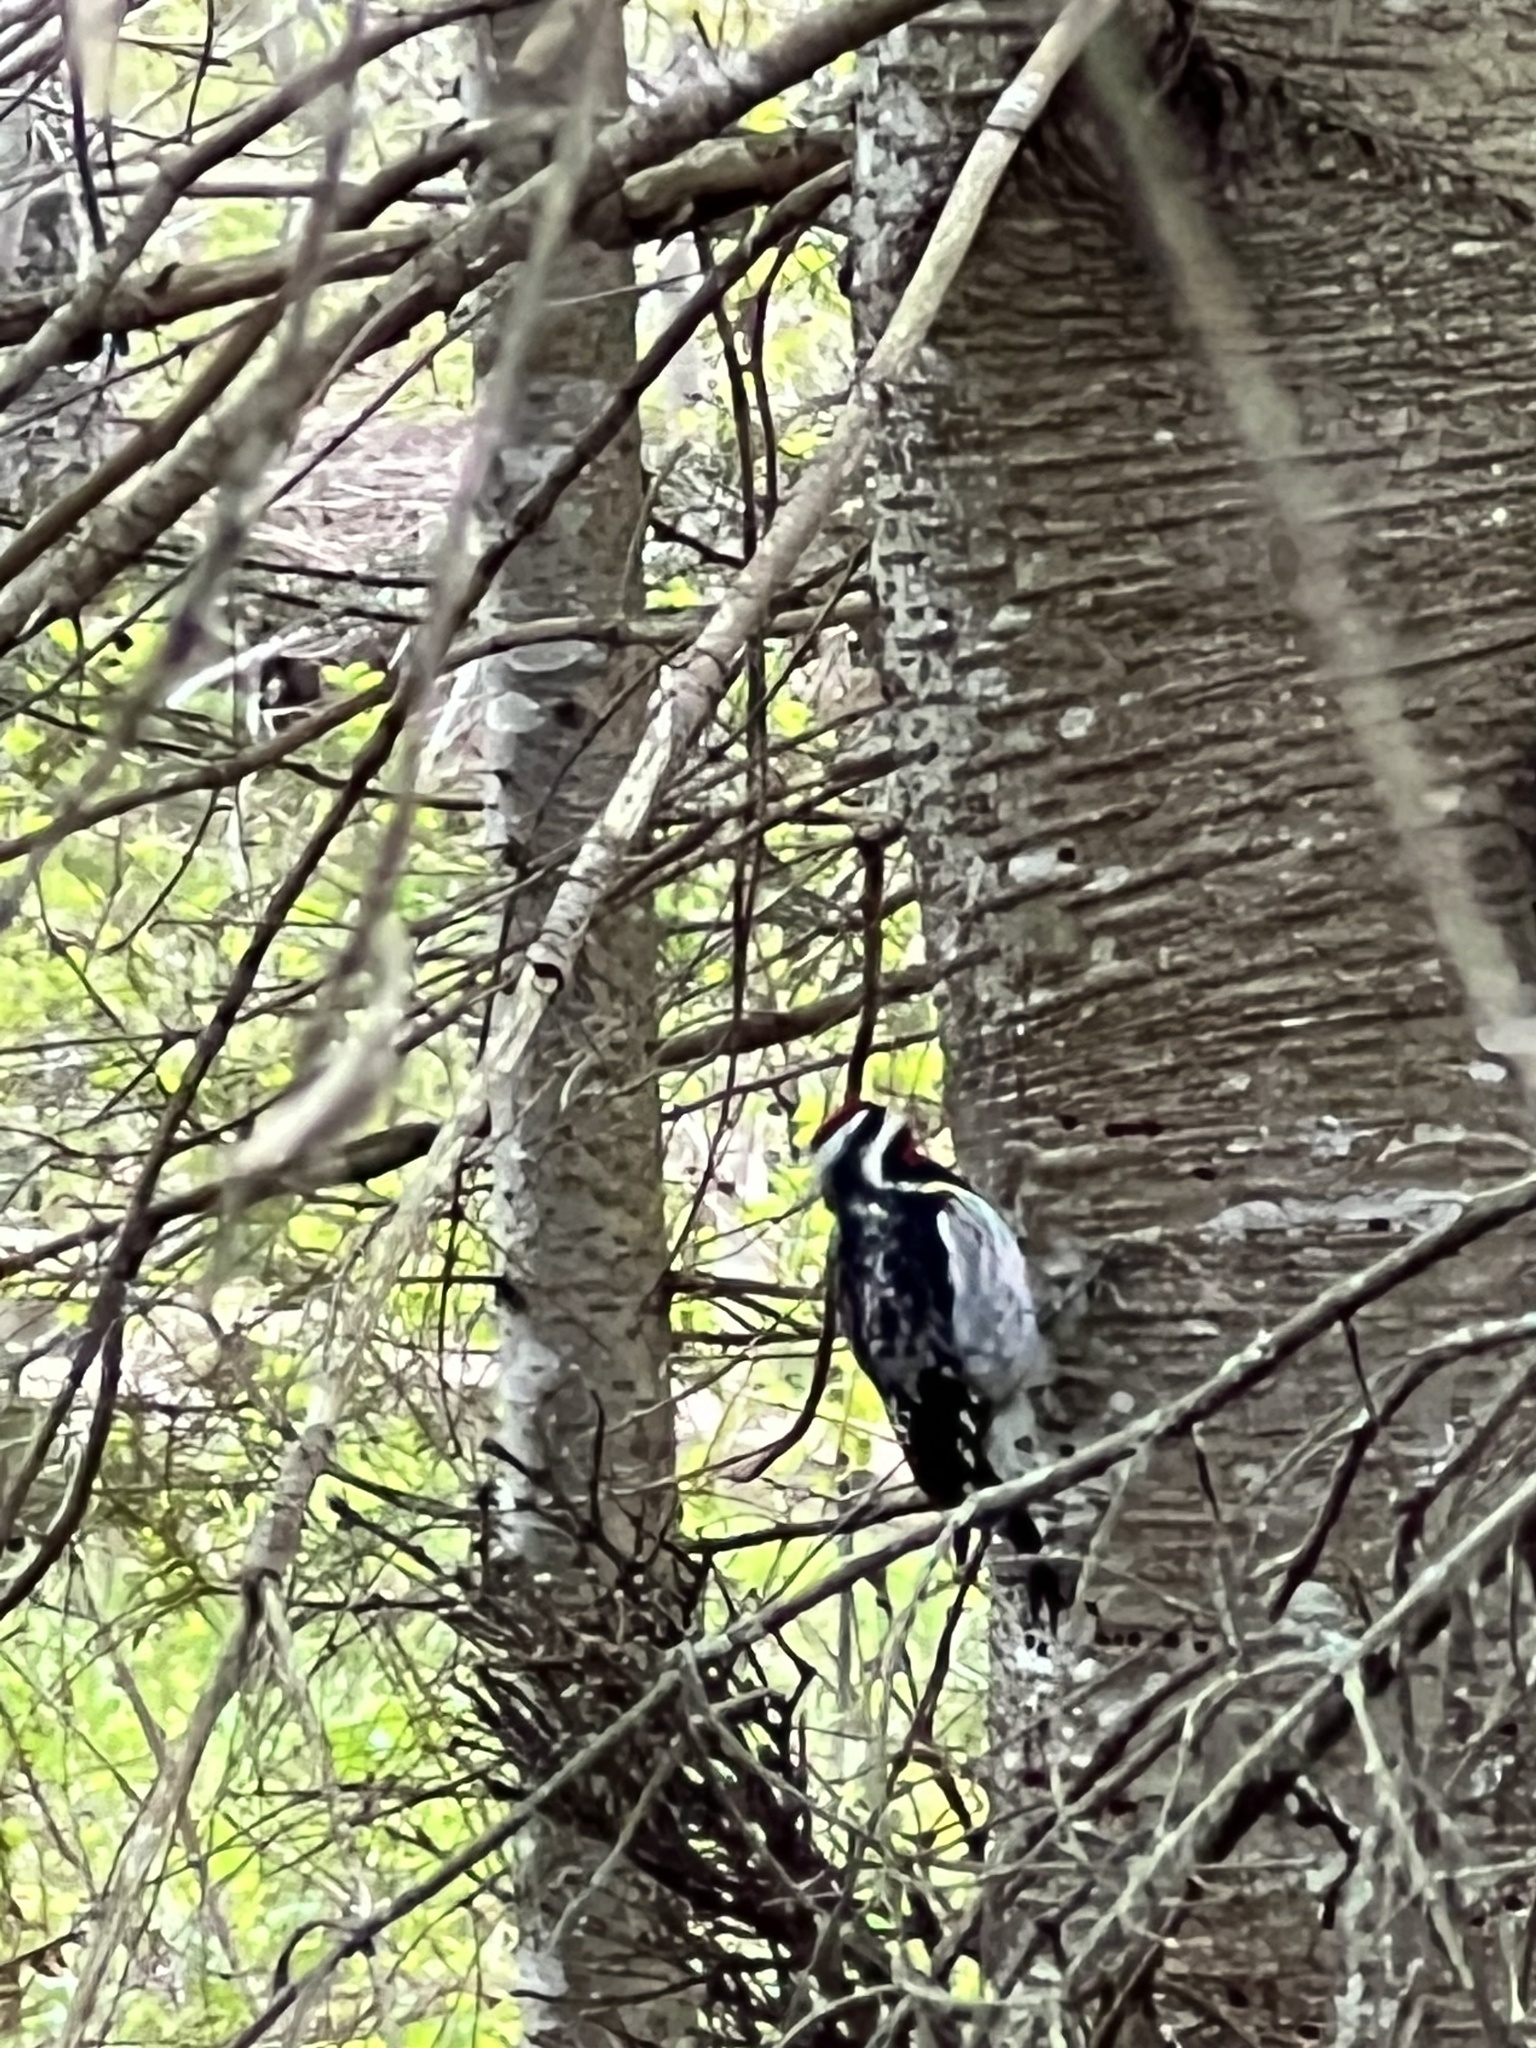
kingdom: Animalia
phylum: Chordata
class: Aves
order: Piciformes
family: Picidae
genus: Sphyrapicus
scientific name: Sphyrapicus varius
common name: Yellow-bellied sapsucker
